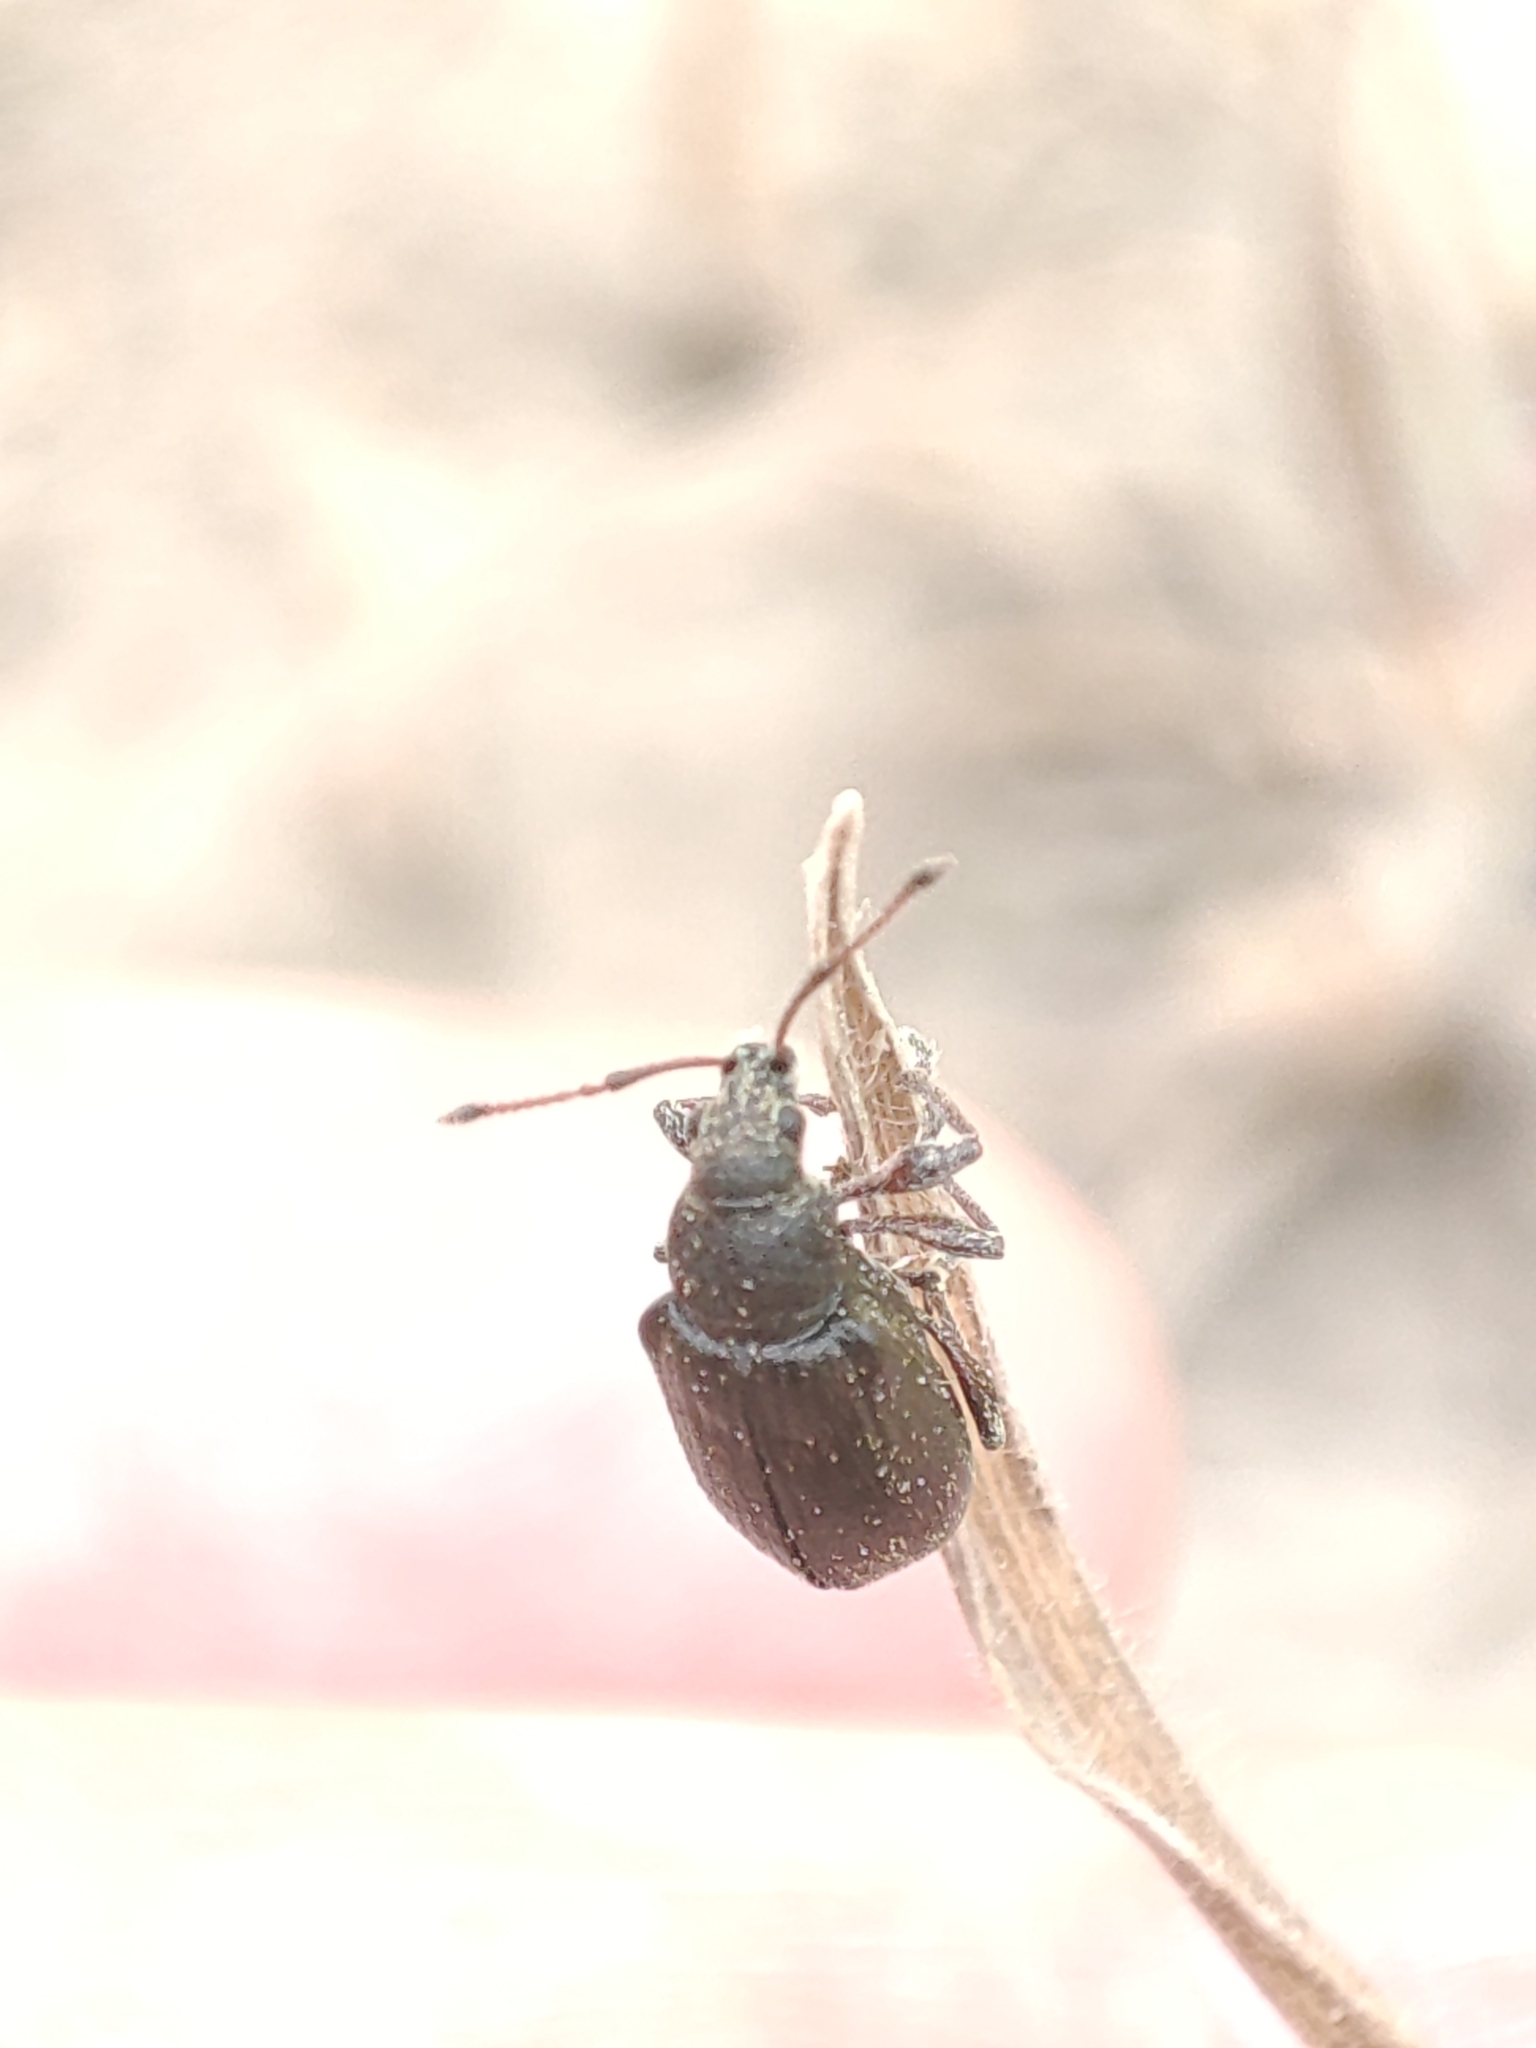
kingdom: Animalia
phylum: Arthropoda
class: Insecta
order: Coleoptera
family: Curculionidae
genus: Phyllobius
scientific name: Phyllobius pyri
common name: Common leaf weevil
